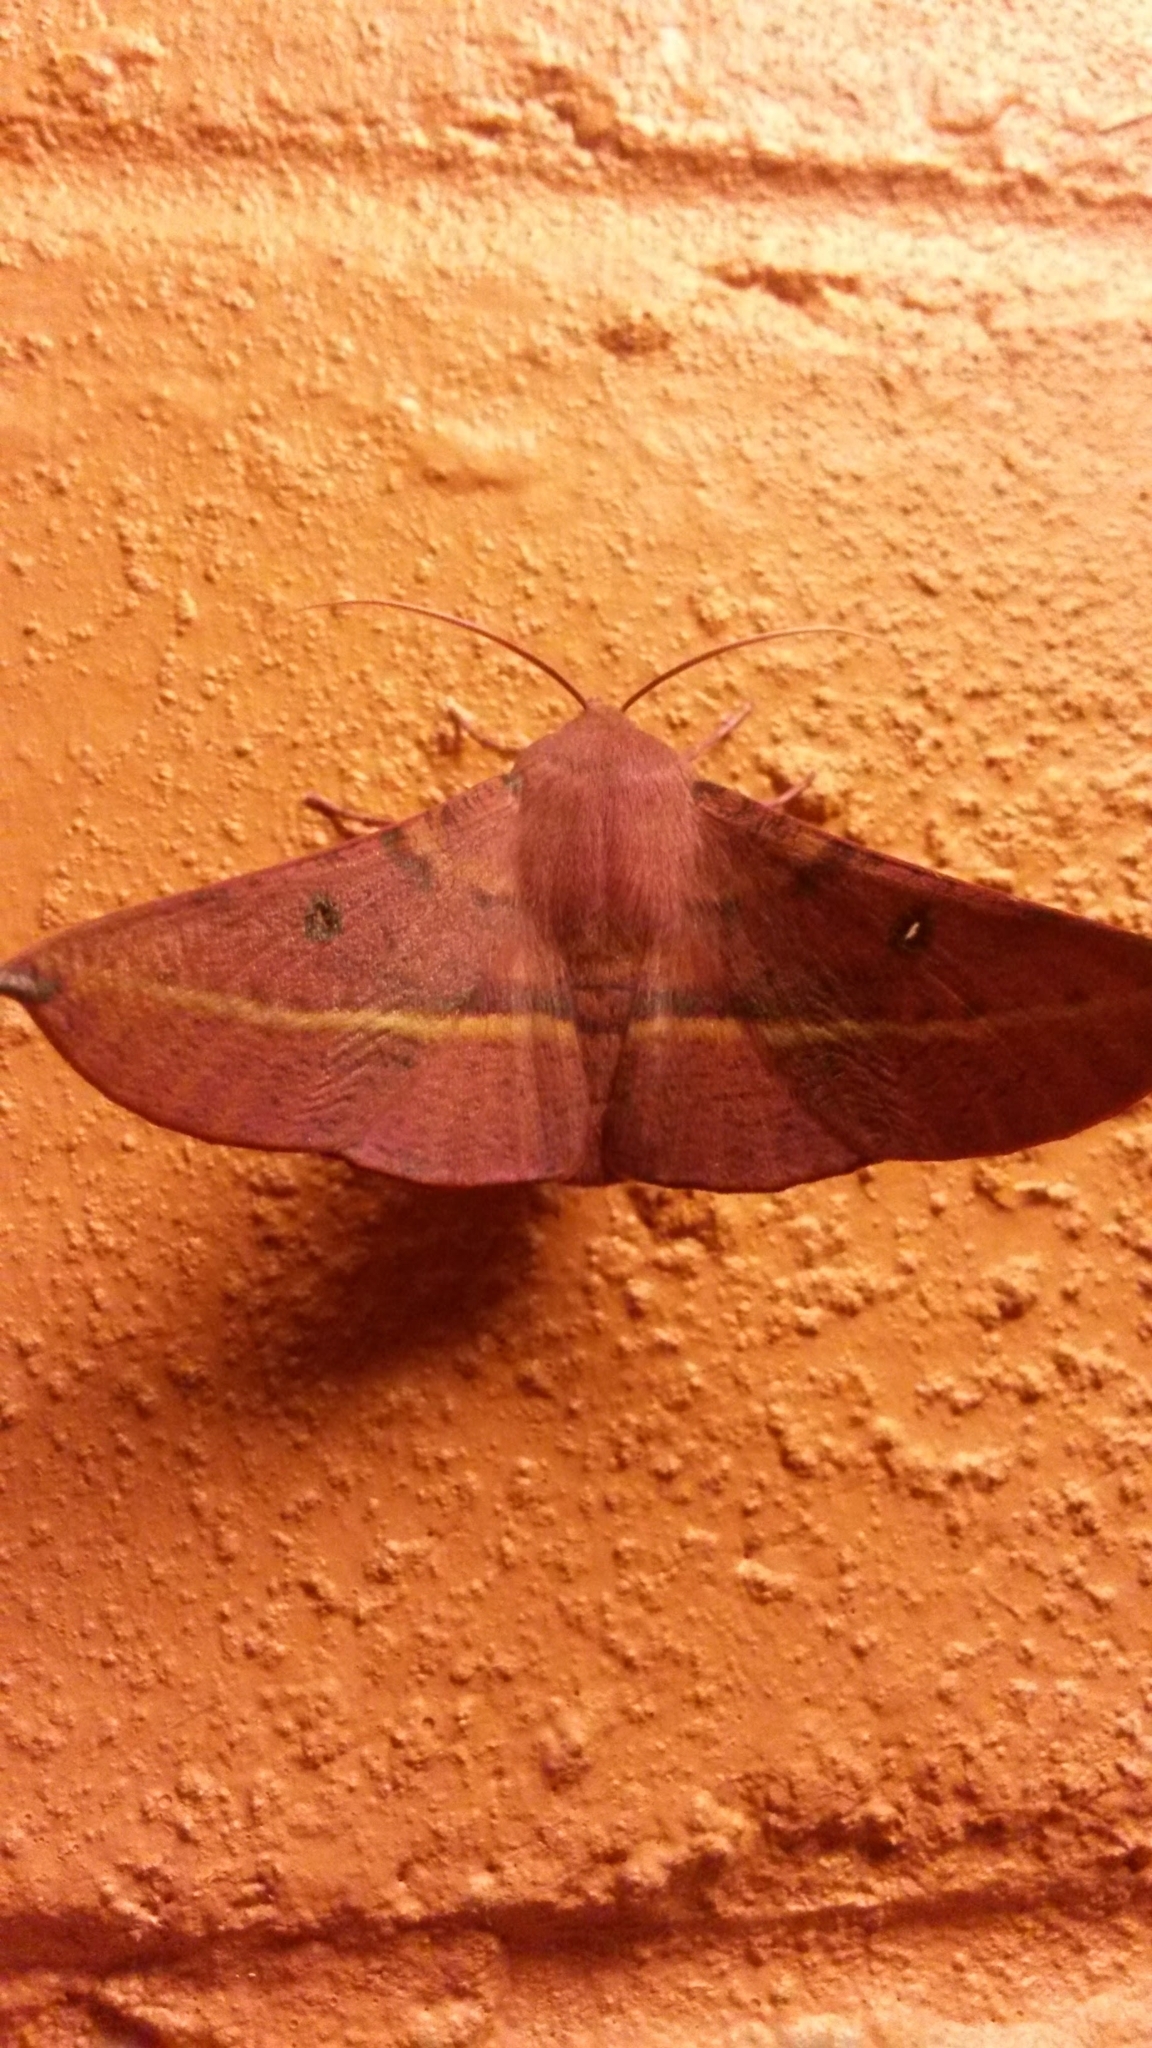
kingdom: Animalia
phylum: Arthropoda
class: Insecta
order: Lepidoptera
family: Geometridae
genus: Oenochroma
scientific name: Oenochroma vinaria
